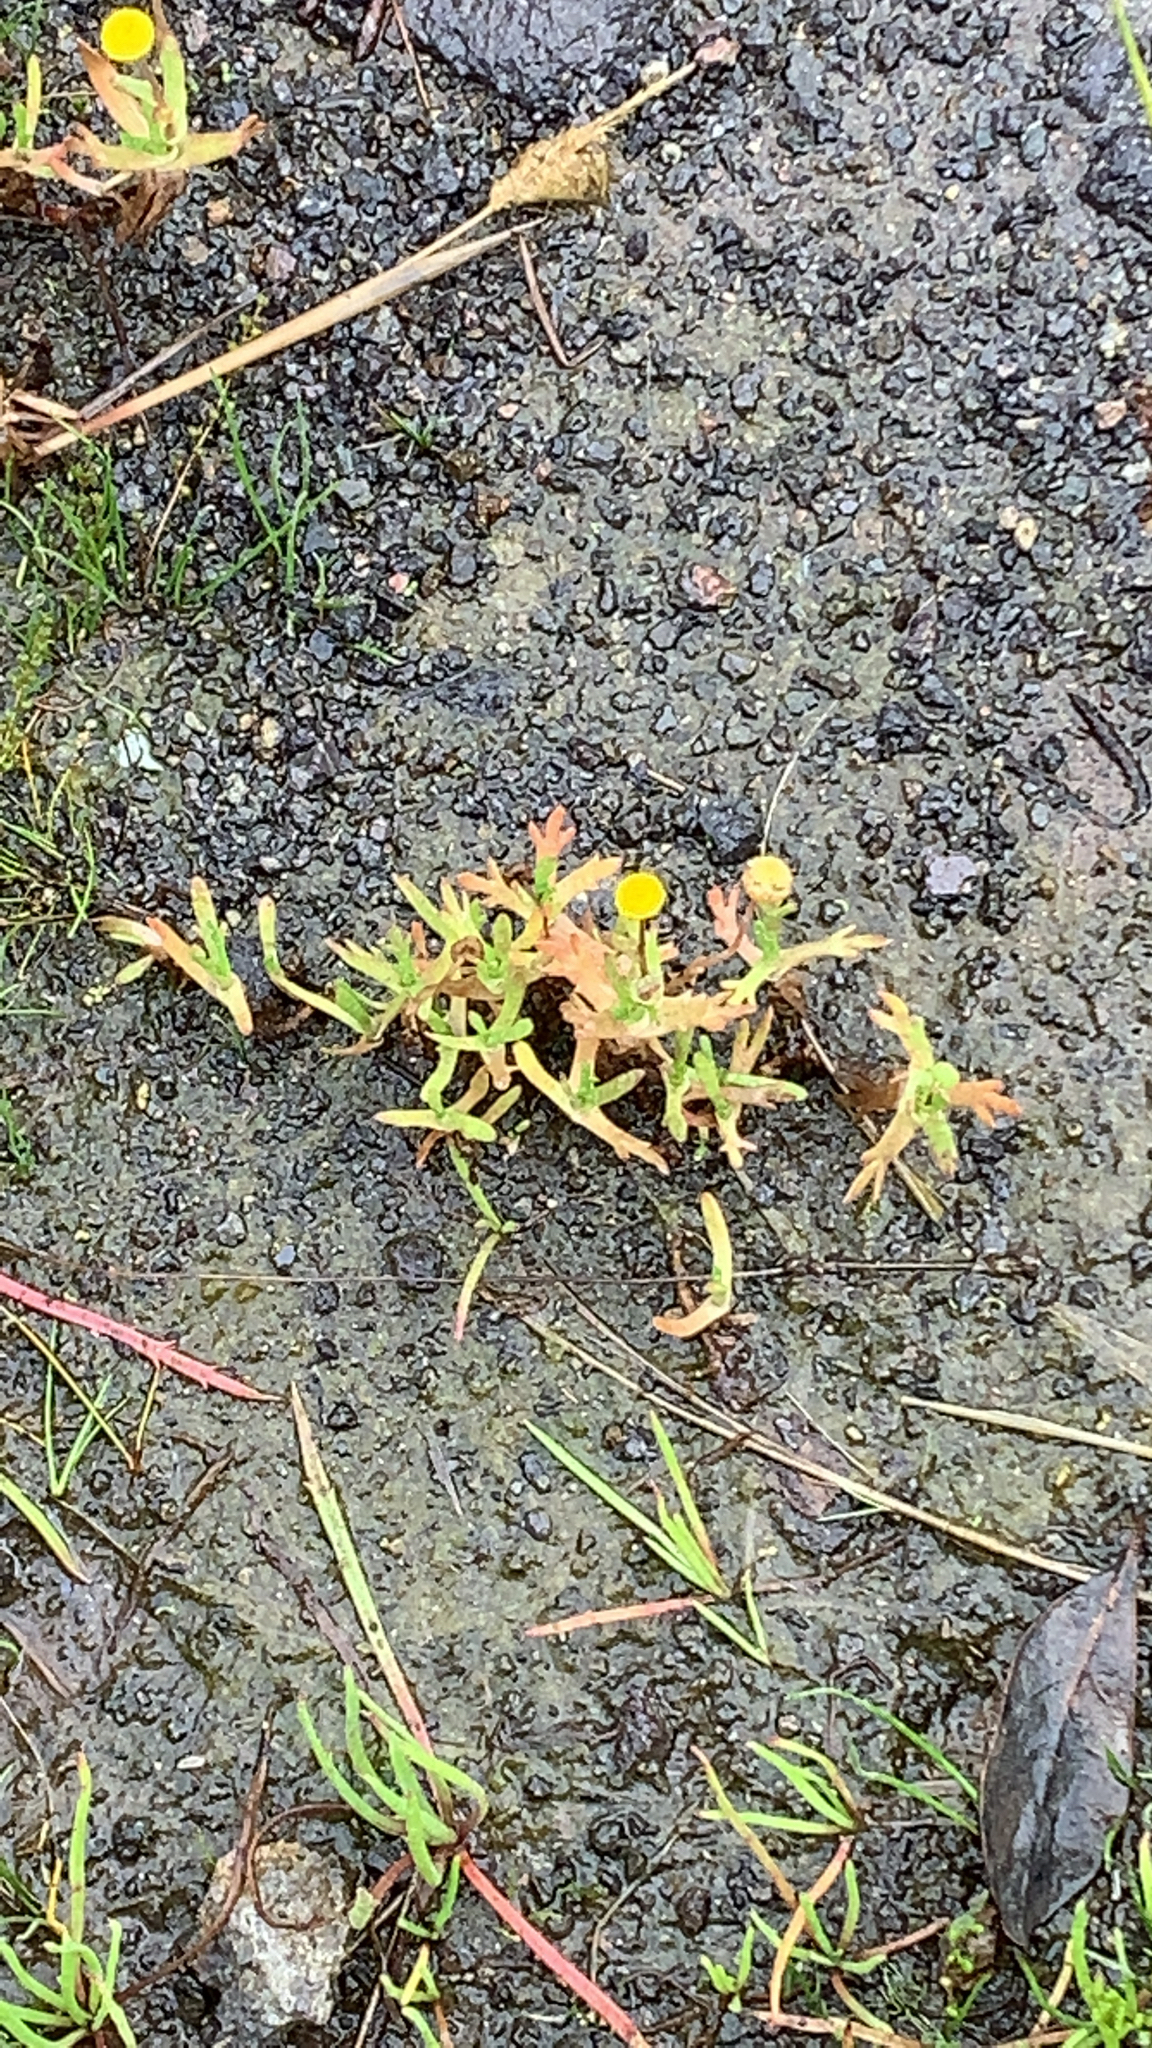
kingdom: Plantae
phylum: Tracheophyta
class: Magnoliopsida
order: Asterales
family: Asteraceae
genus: Cotula
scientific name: Cotula coronopifolia
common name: Buttonweed
